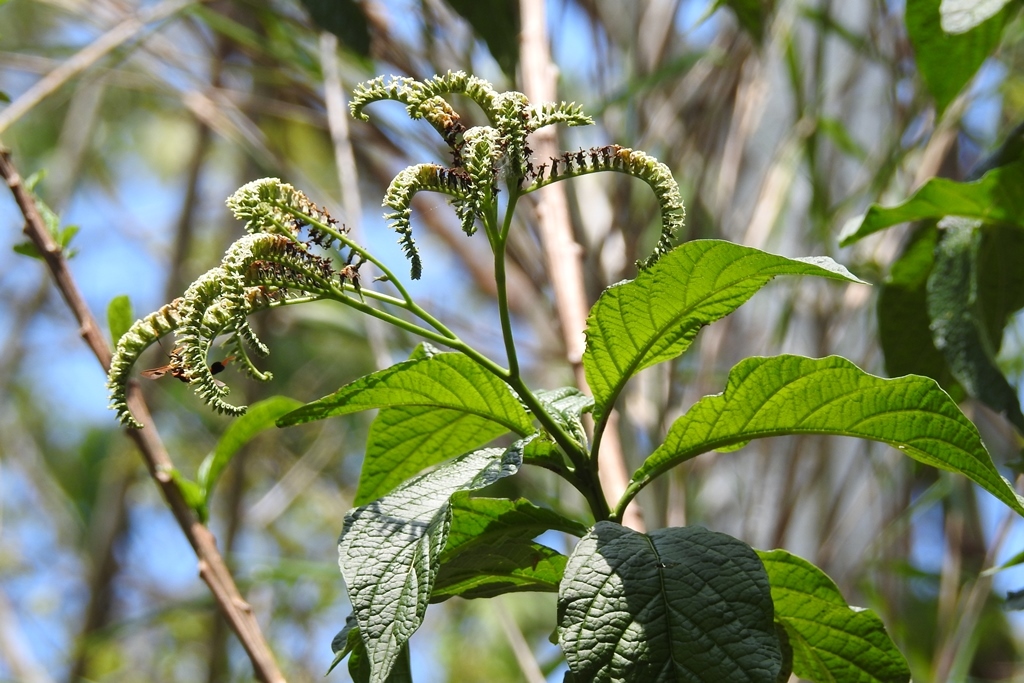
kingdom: Plantae
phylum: Tracheophyta
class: Magnoliopsida
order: Boraginales
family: Heliotropiaceae
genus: Heliotropium
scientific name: Heliotropium
